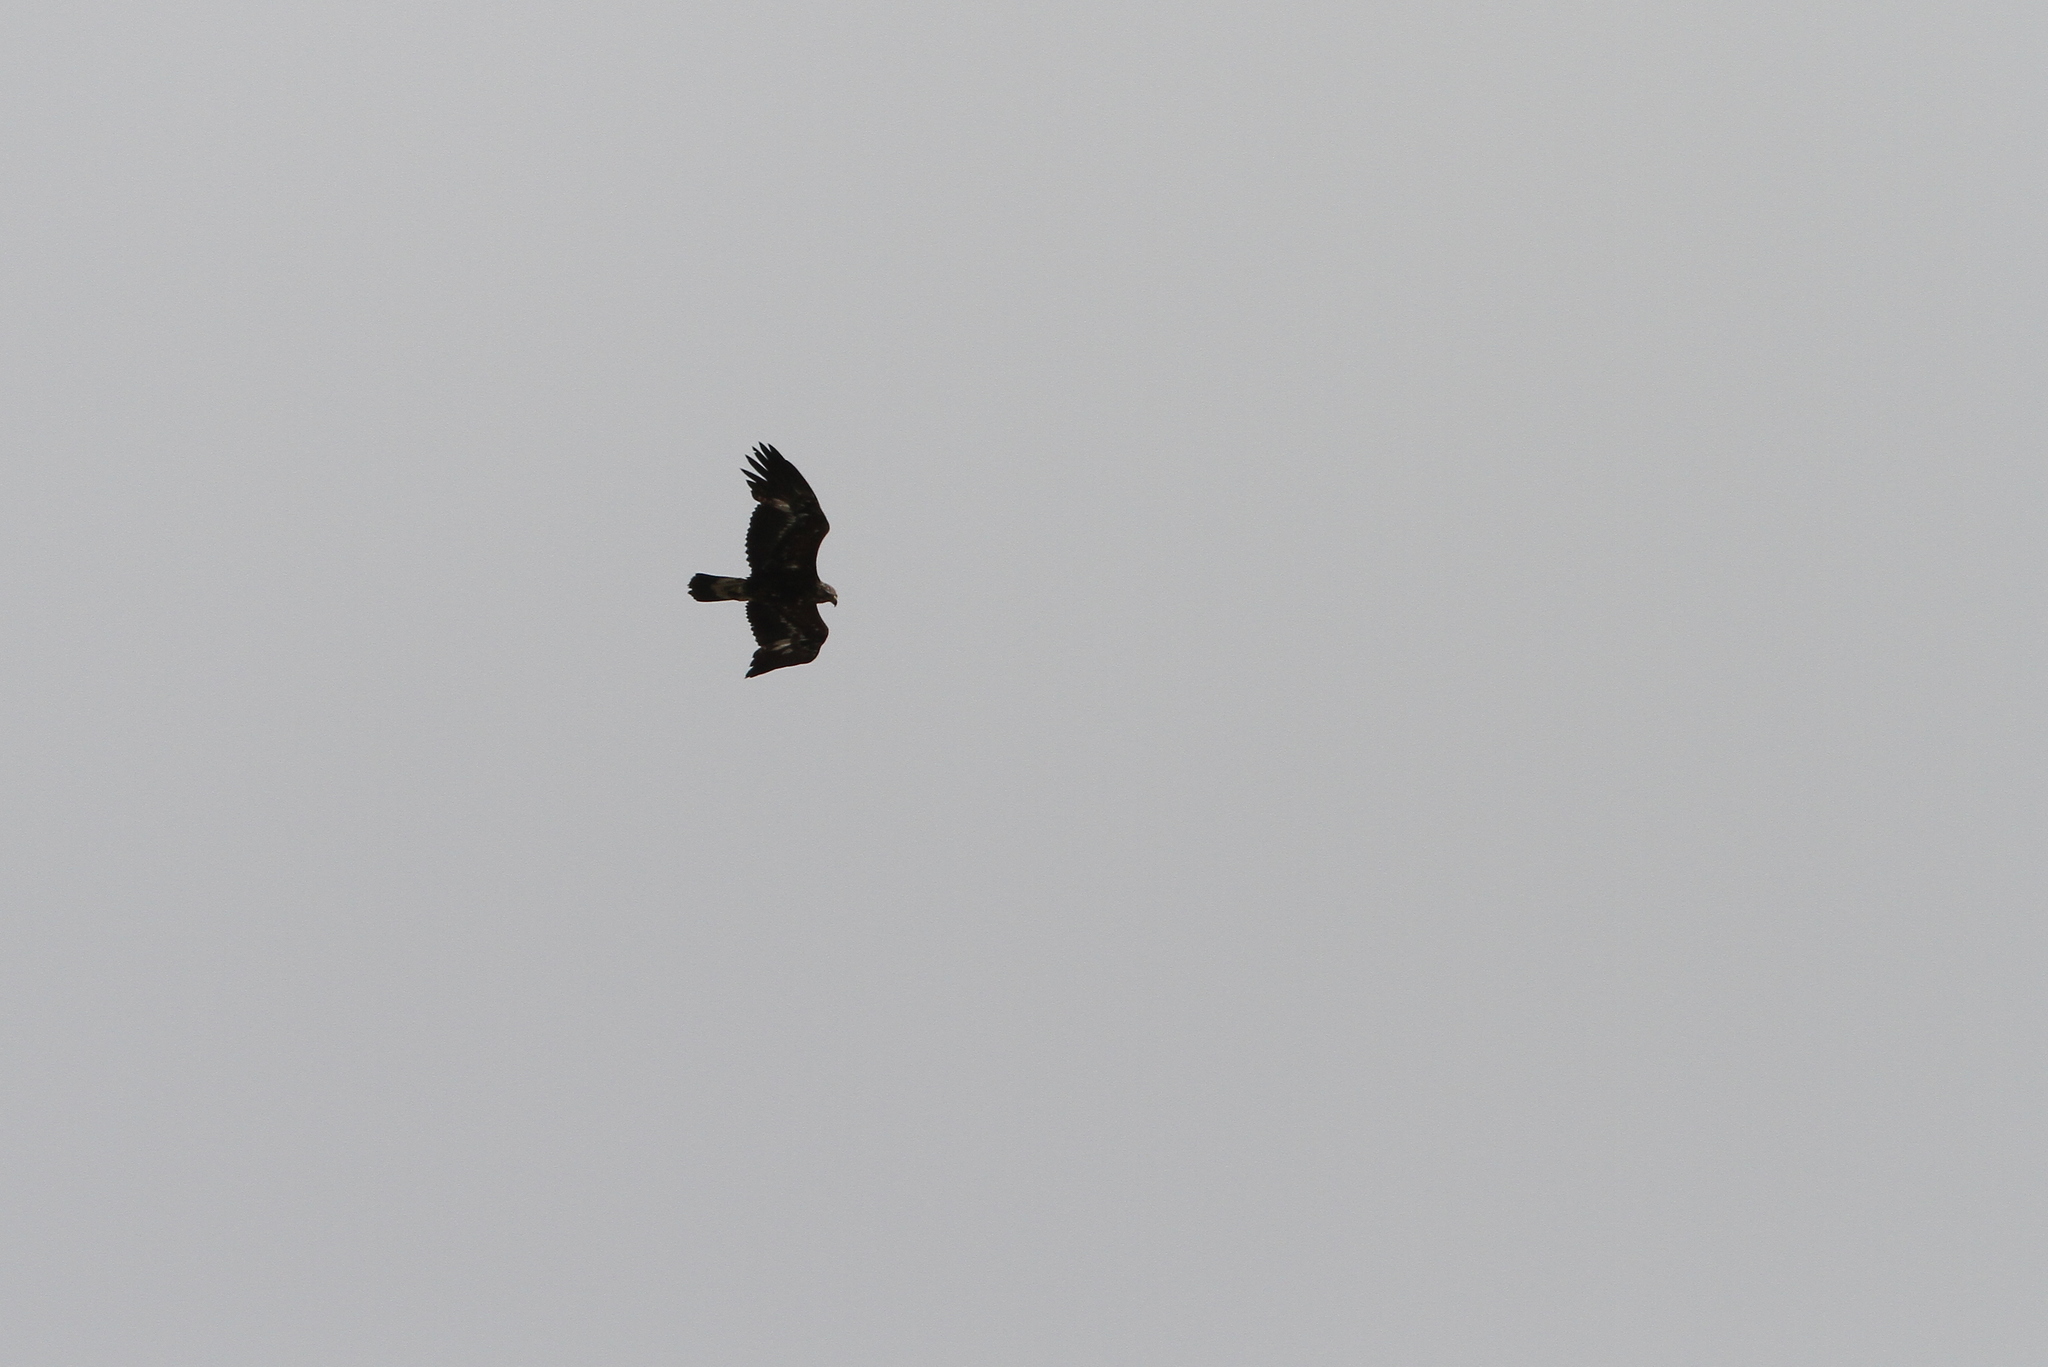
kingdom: Animalia
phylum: Chordata
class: Aves
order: Accipitriformes
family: Accipitridae
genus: Aquila
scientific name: Aquila chrysaetos
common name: Golden eagle
